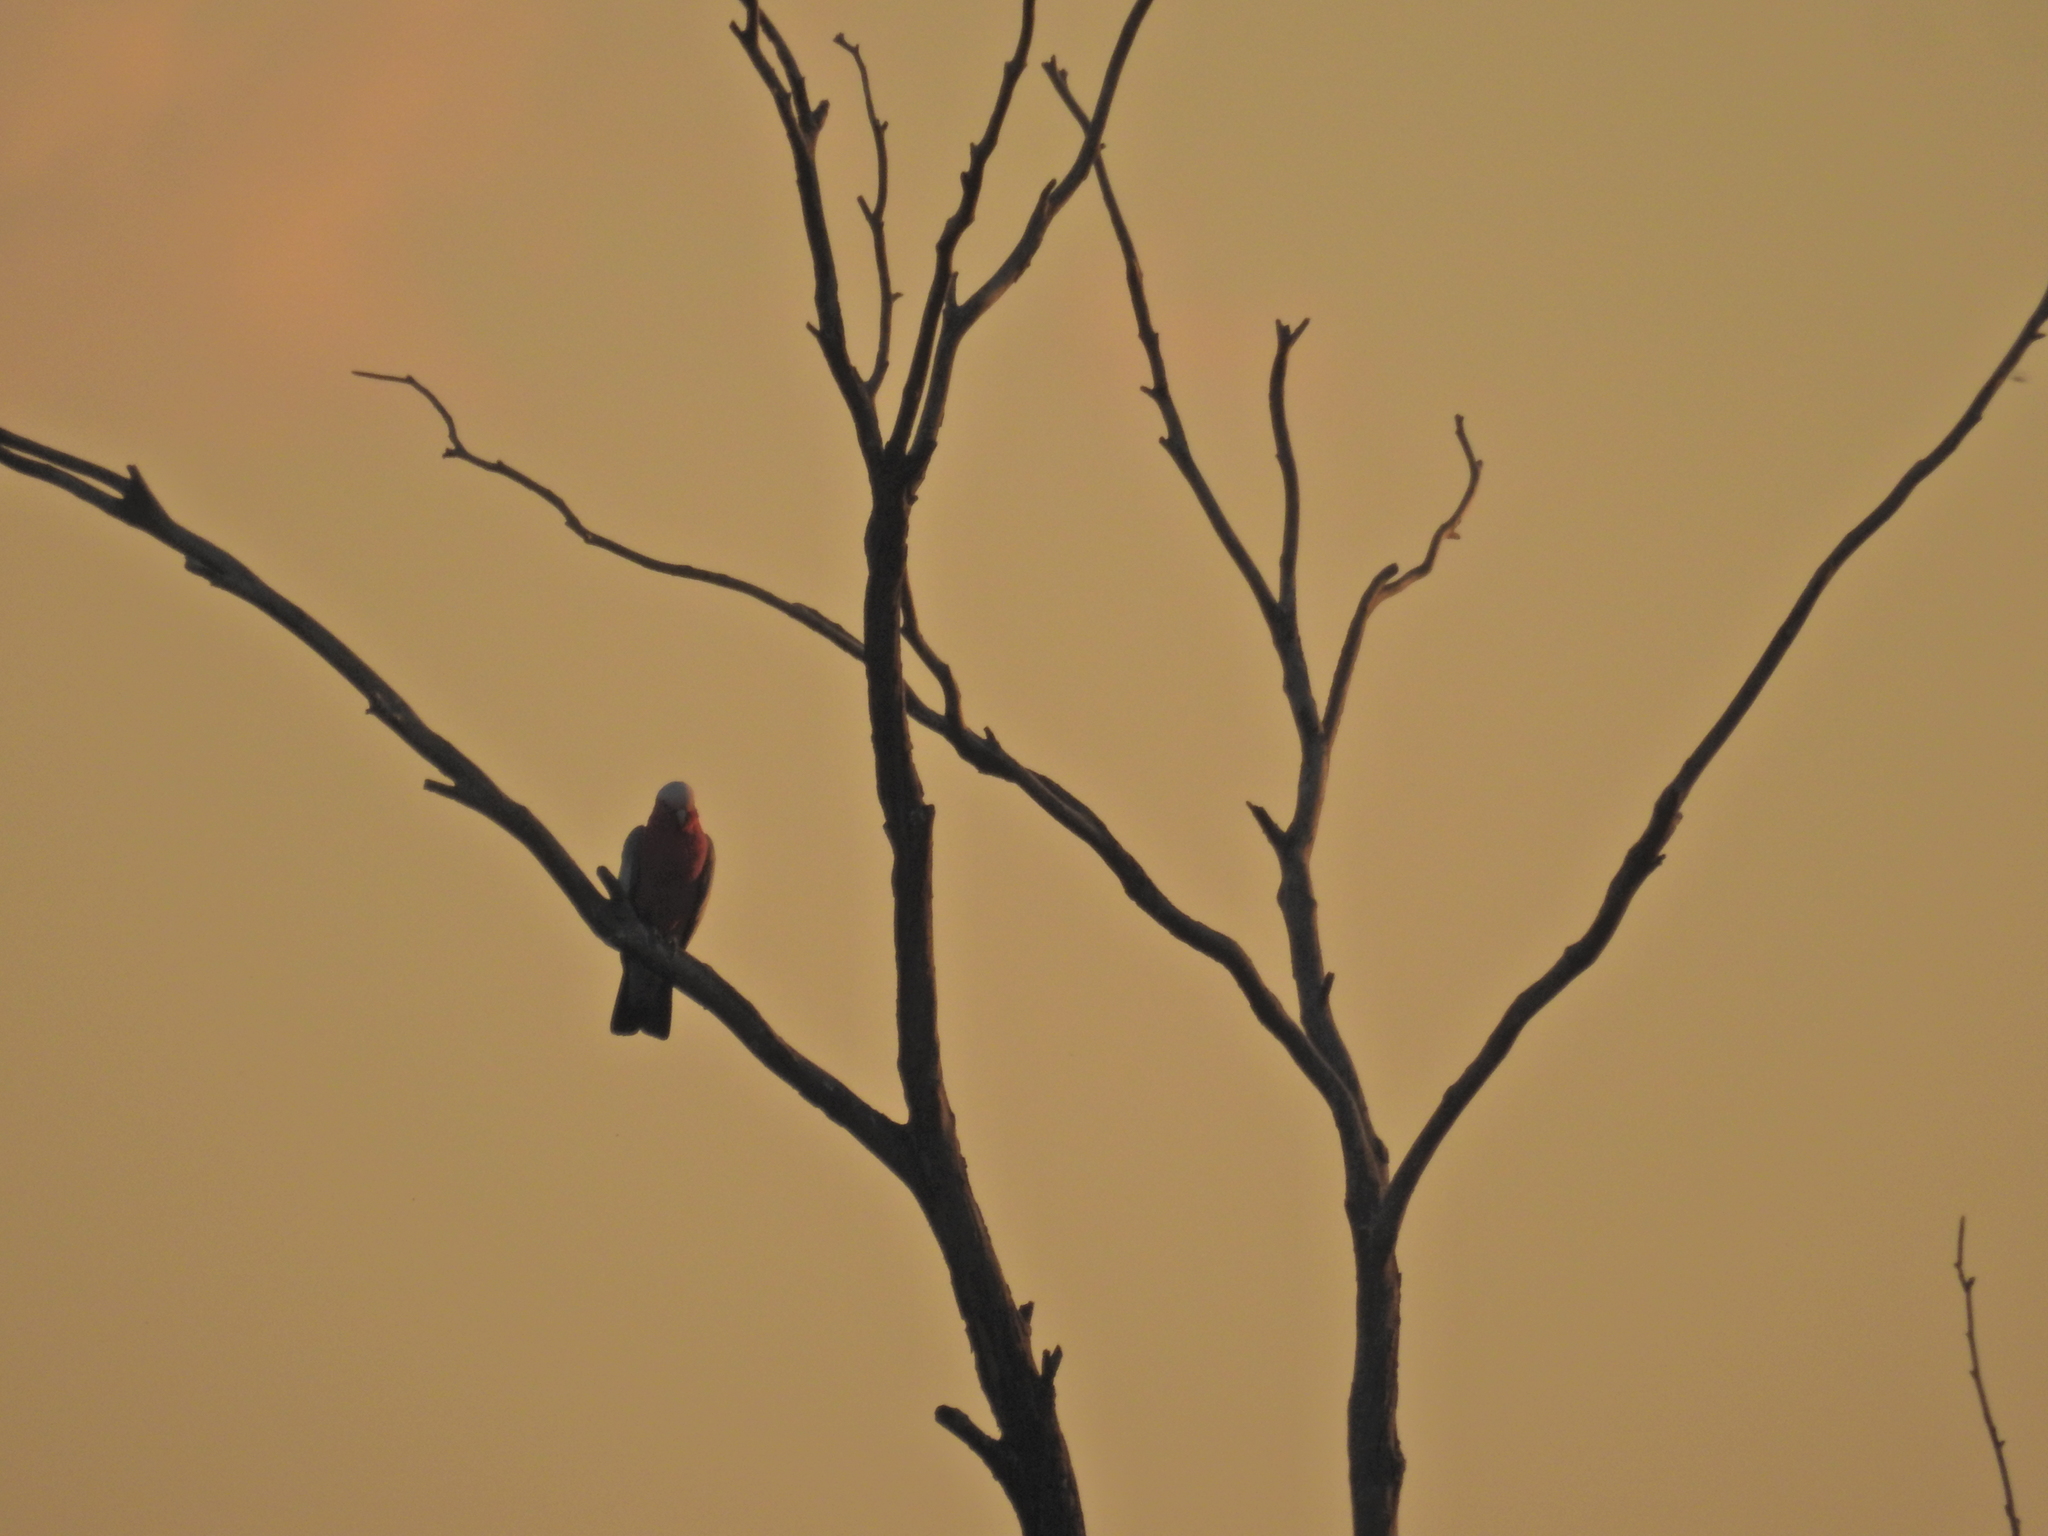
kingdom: Animalia
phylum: Chordata
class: Aves
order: Psittaciformes
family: Psittacidae
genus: Eolophus
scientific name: Eolophus roseicapilla
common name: Galah
